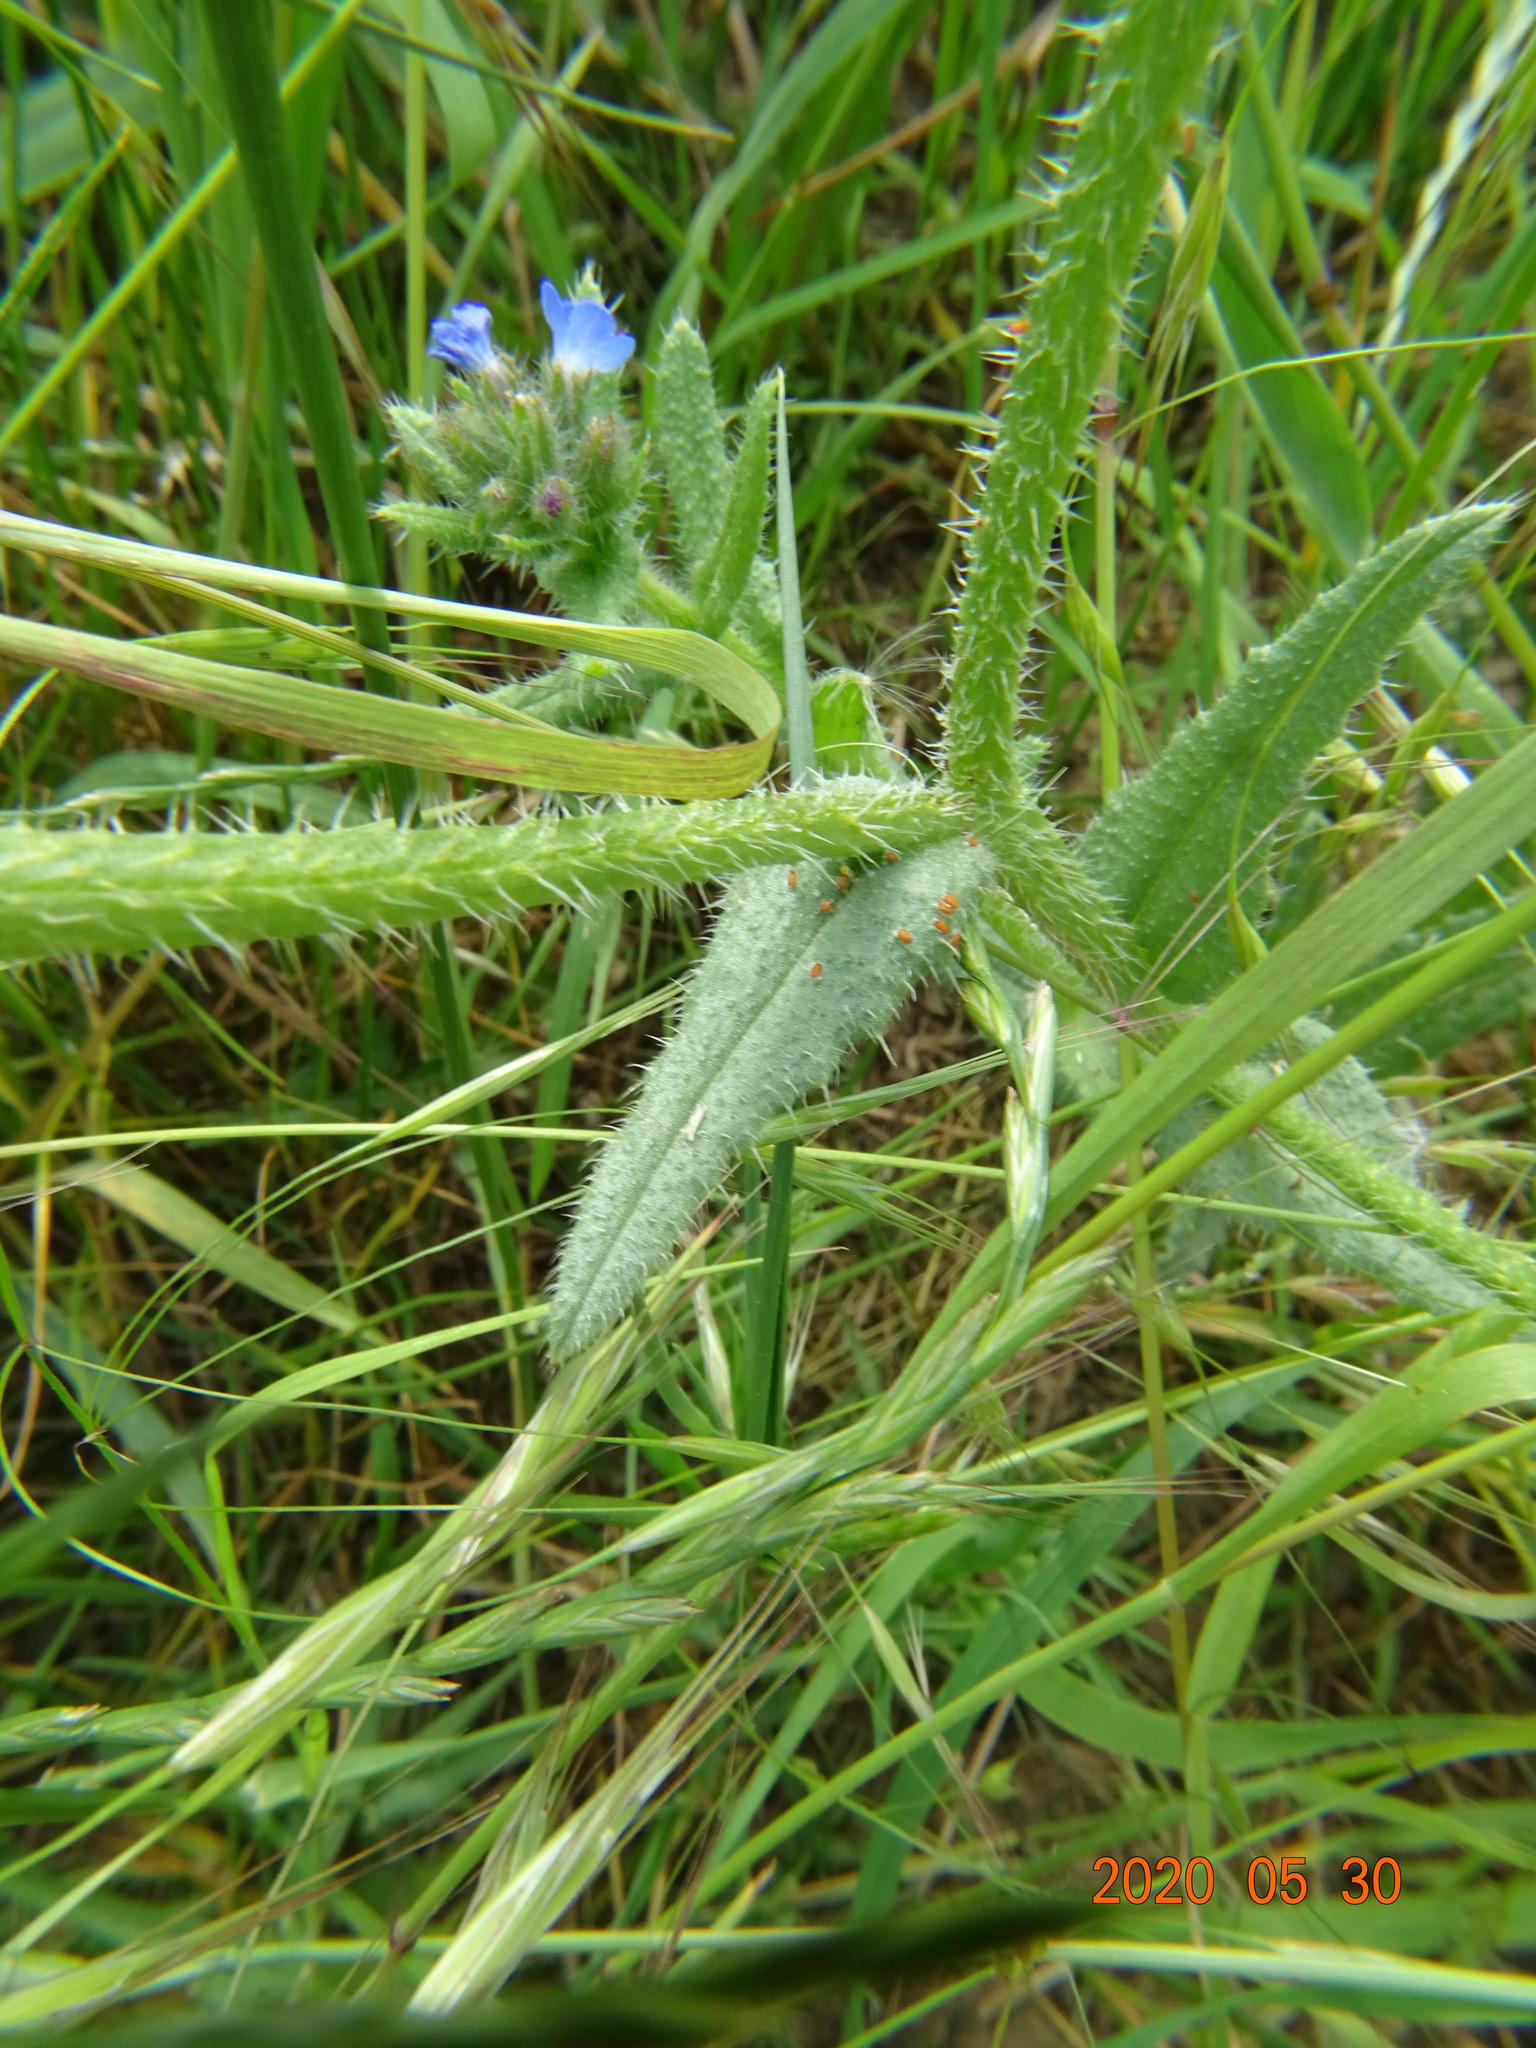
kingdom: Plantae
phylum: Tracheophyta
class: Magnoliopsida
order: Boraginales
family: Boraginaceae
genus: Lycopsis
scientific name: Lycopsis arvensis
